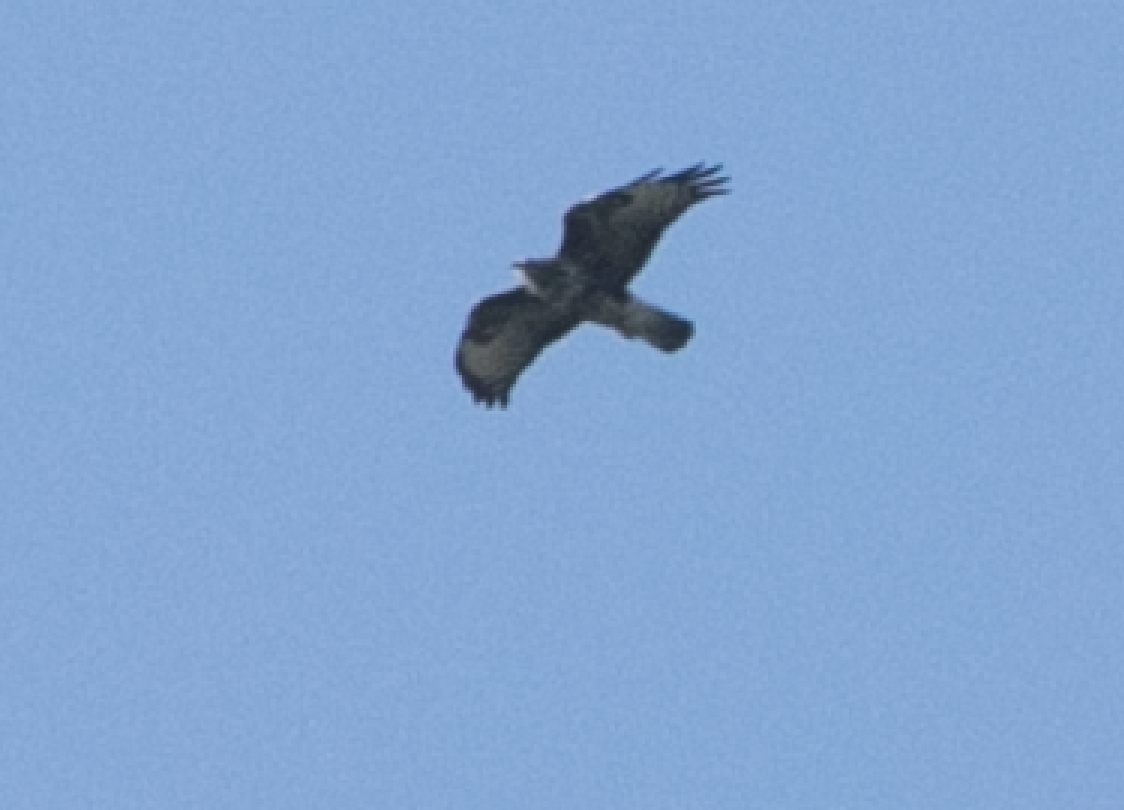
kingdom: Animalia
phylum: Chordata
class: Aves
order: Accipitriformes
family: Accipitridae
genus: Buteo
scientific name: Buteo buteo
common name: Common buzzard
